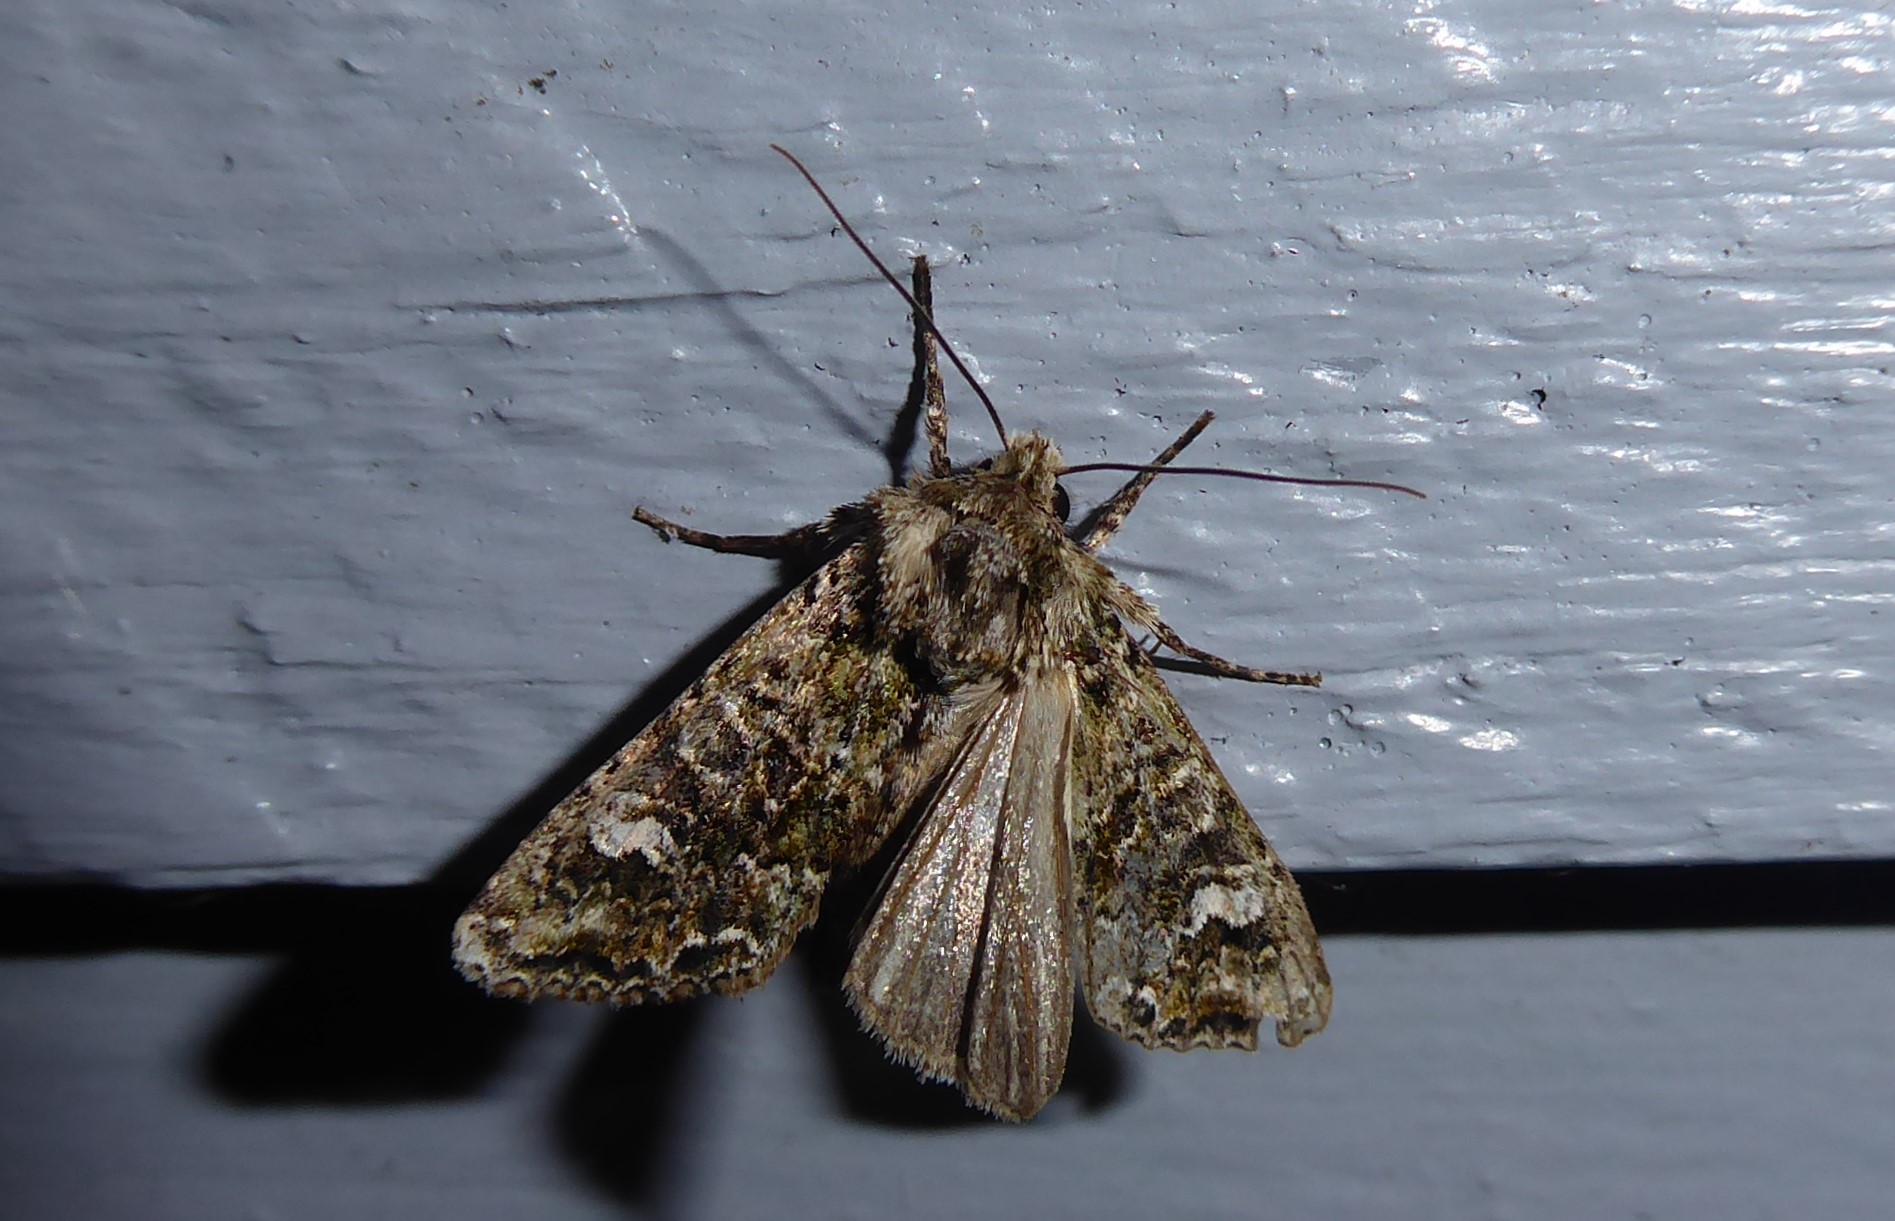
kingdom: Animalia
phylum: Arthropoda
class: Insecta
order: Lepidoptera
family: Noctuidae
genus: Ichneutica
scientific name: Ichneutica
